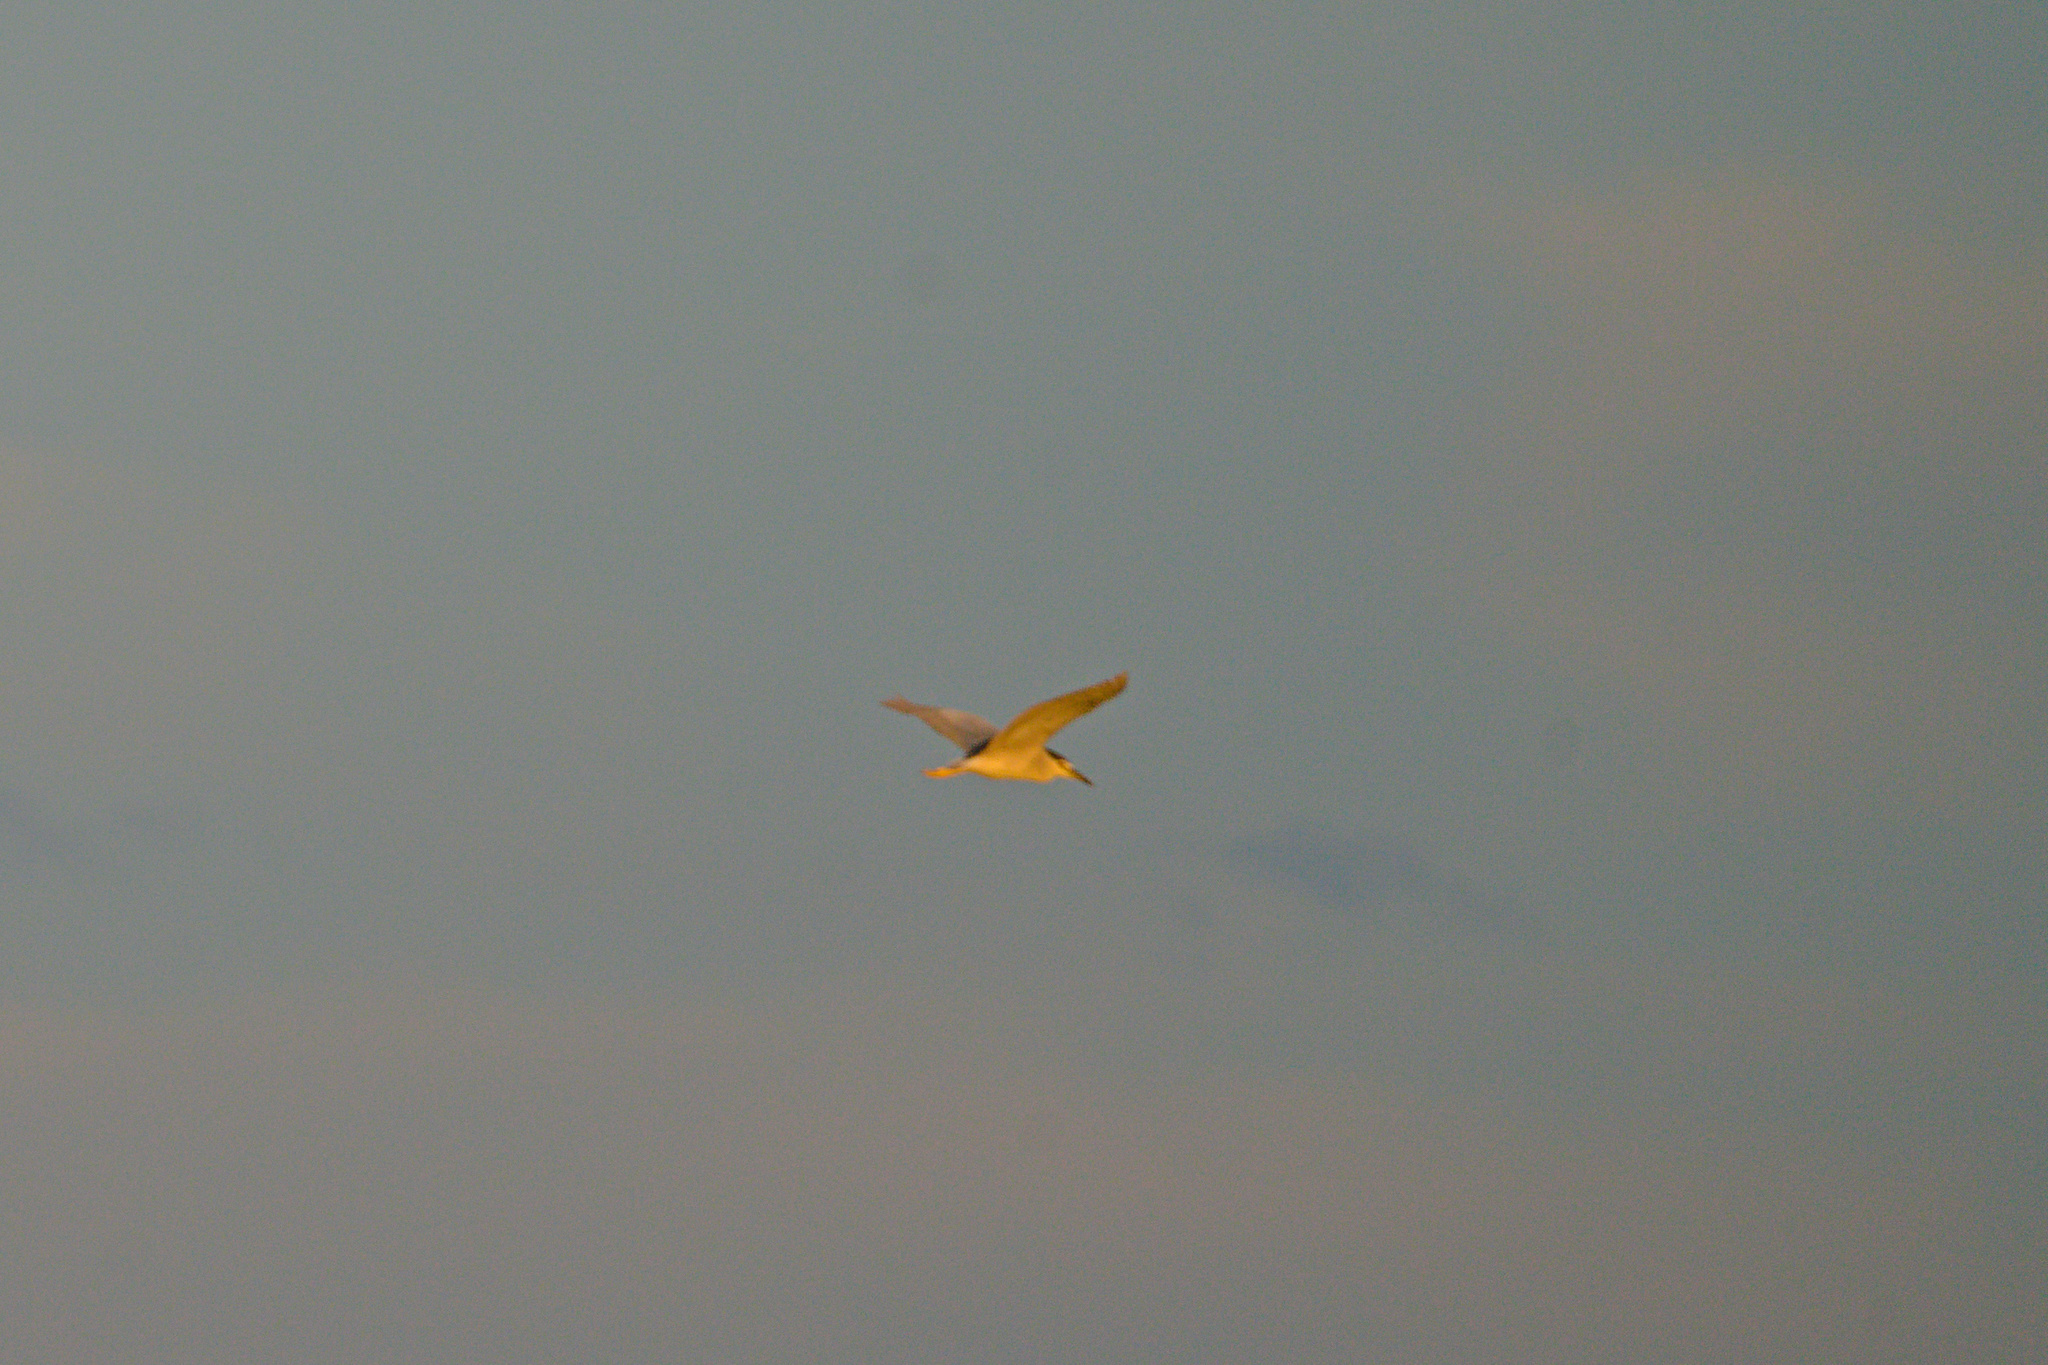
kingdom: Animalia
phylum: Chordata
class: Aves
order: Pelecaniformes
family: Ardeidae
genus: Nycticorax
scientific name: Nycticorax nycticorax
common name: Black-crowned night heron
